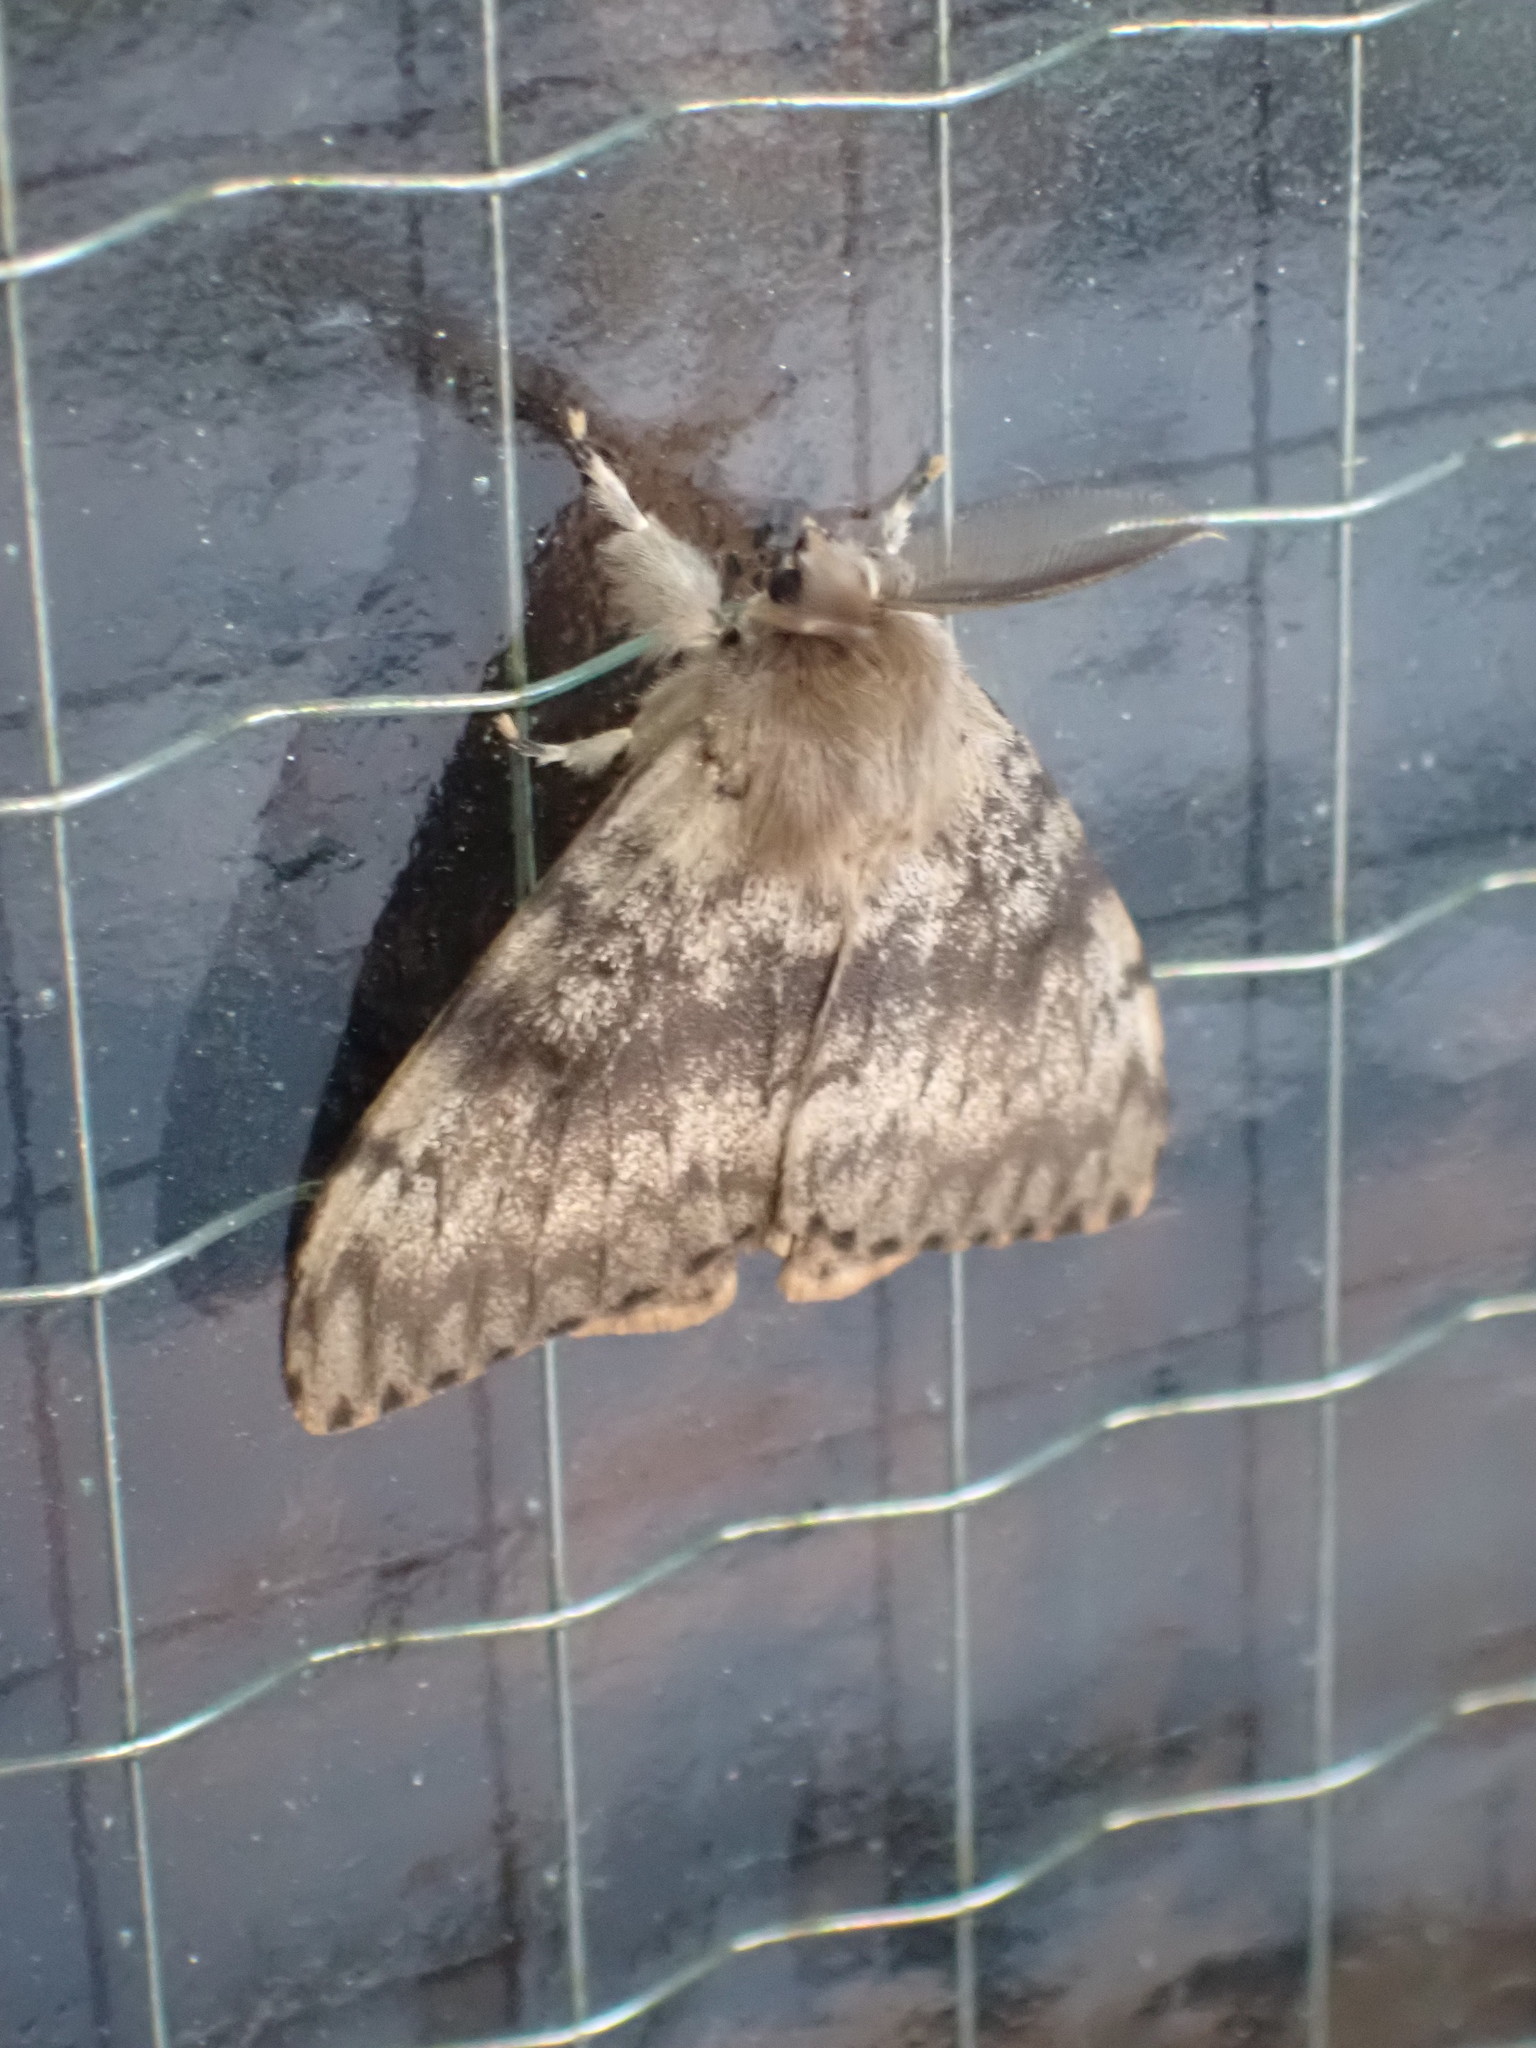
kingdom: Animalia
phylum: Arthropoda
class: Insecta
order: Lepidoptera
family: Erebidae
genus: Lymantria
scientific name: Lymantria dispar
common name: Gypsy moth
